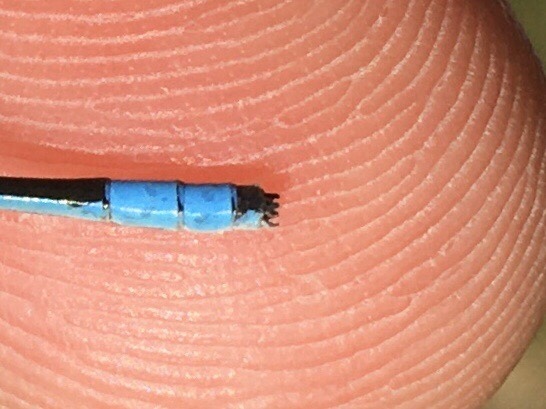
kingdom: Animalia
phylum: Arthropoda
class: Insecta
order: Odonata
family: Coenagrionidae
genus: Enallagma
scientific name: Enallagma ebrium
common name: Marsh bluet
